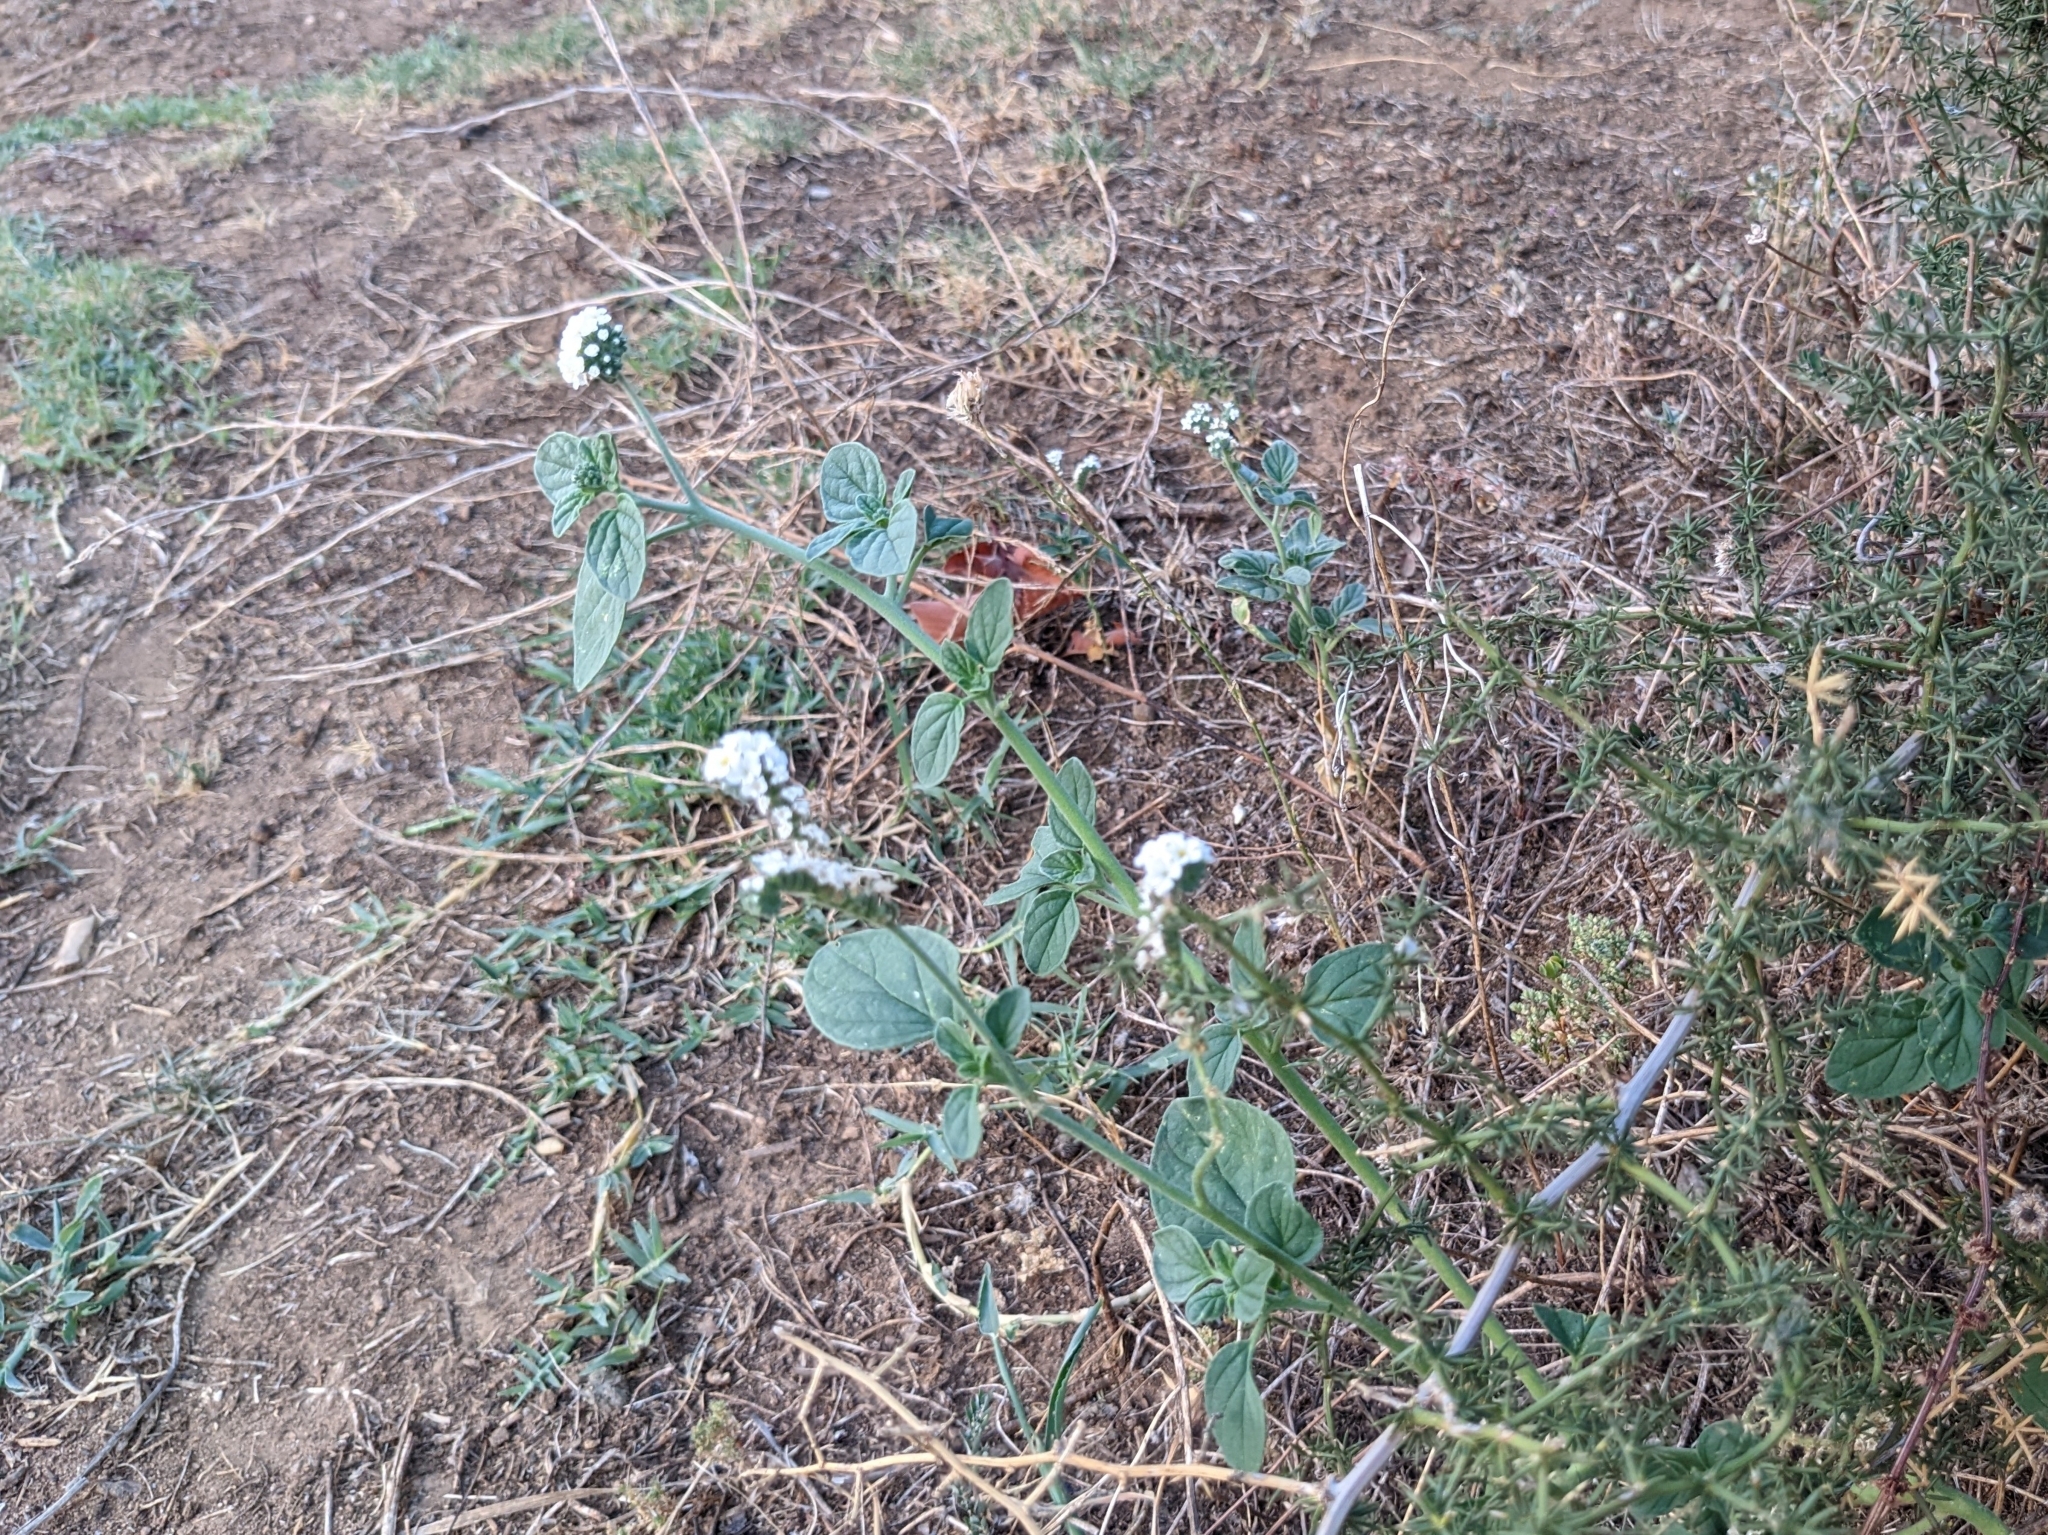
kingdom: Plantae
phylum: Tracheophyta
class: Magnoliopsida
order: Boraginales
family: Heliotropiaceae
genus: Heliotropium
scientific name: Heliotropium europaeum
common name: European heliotrope
